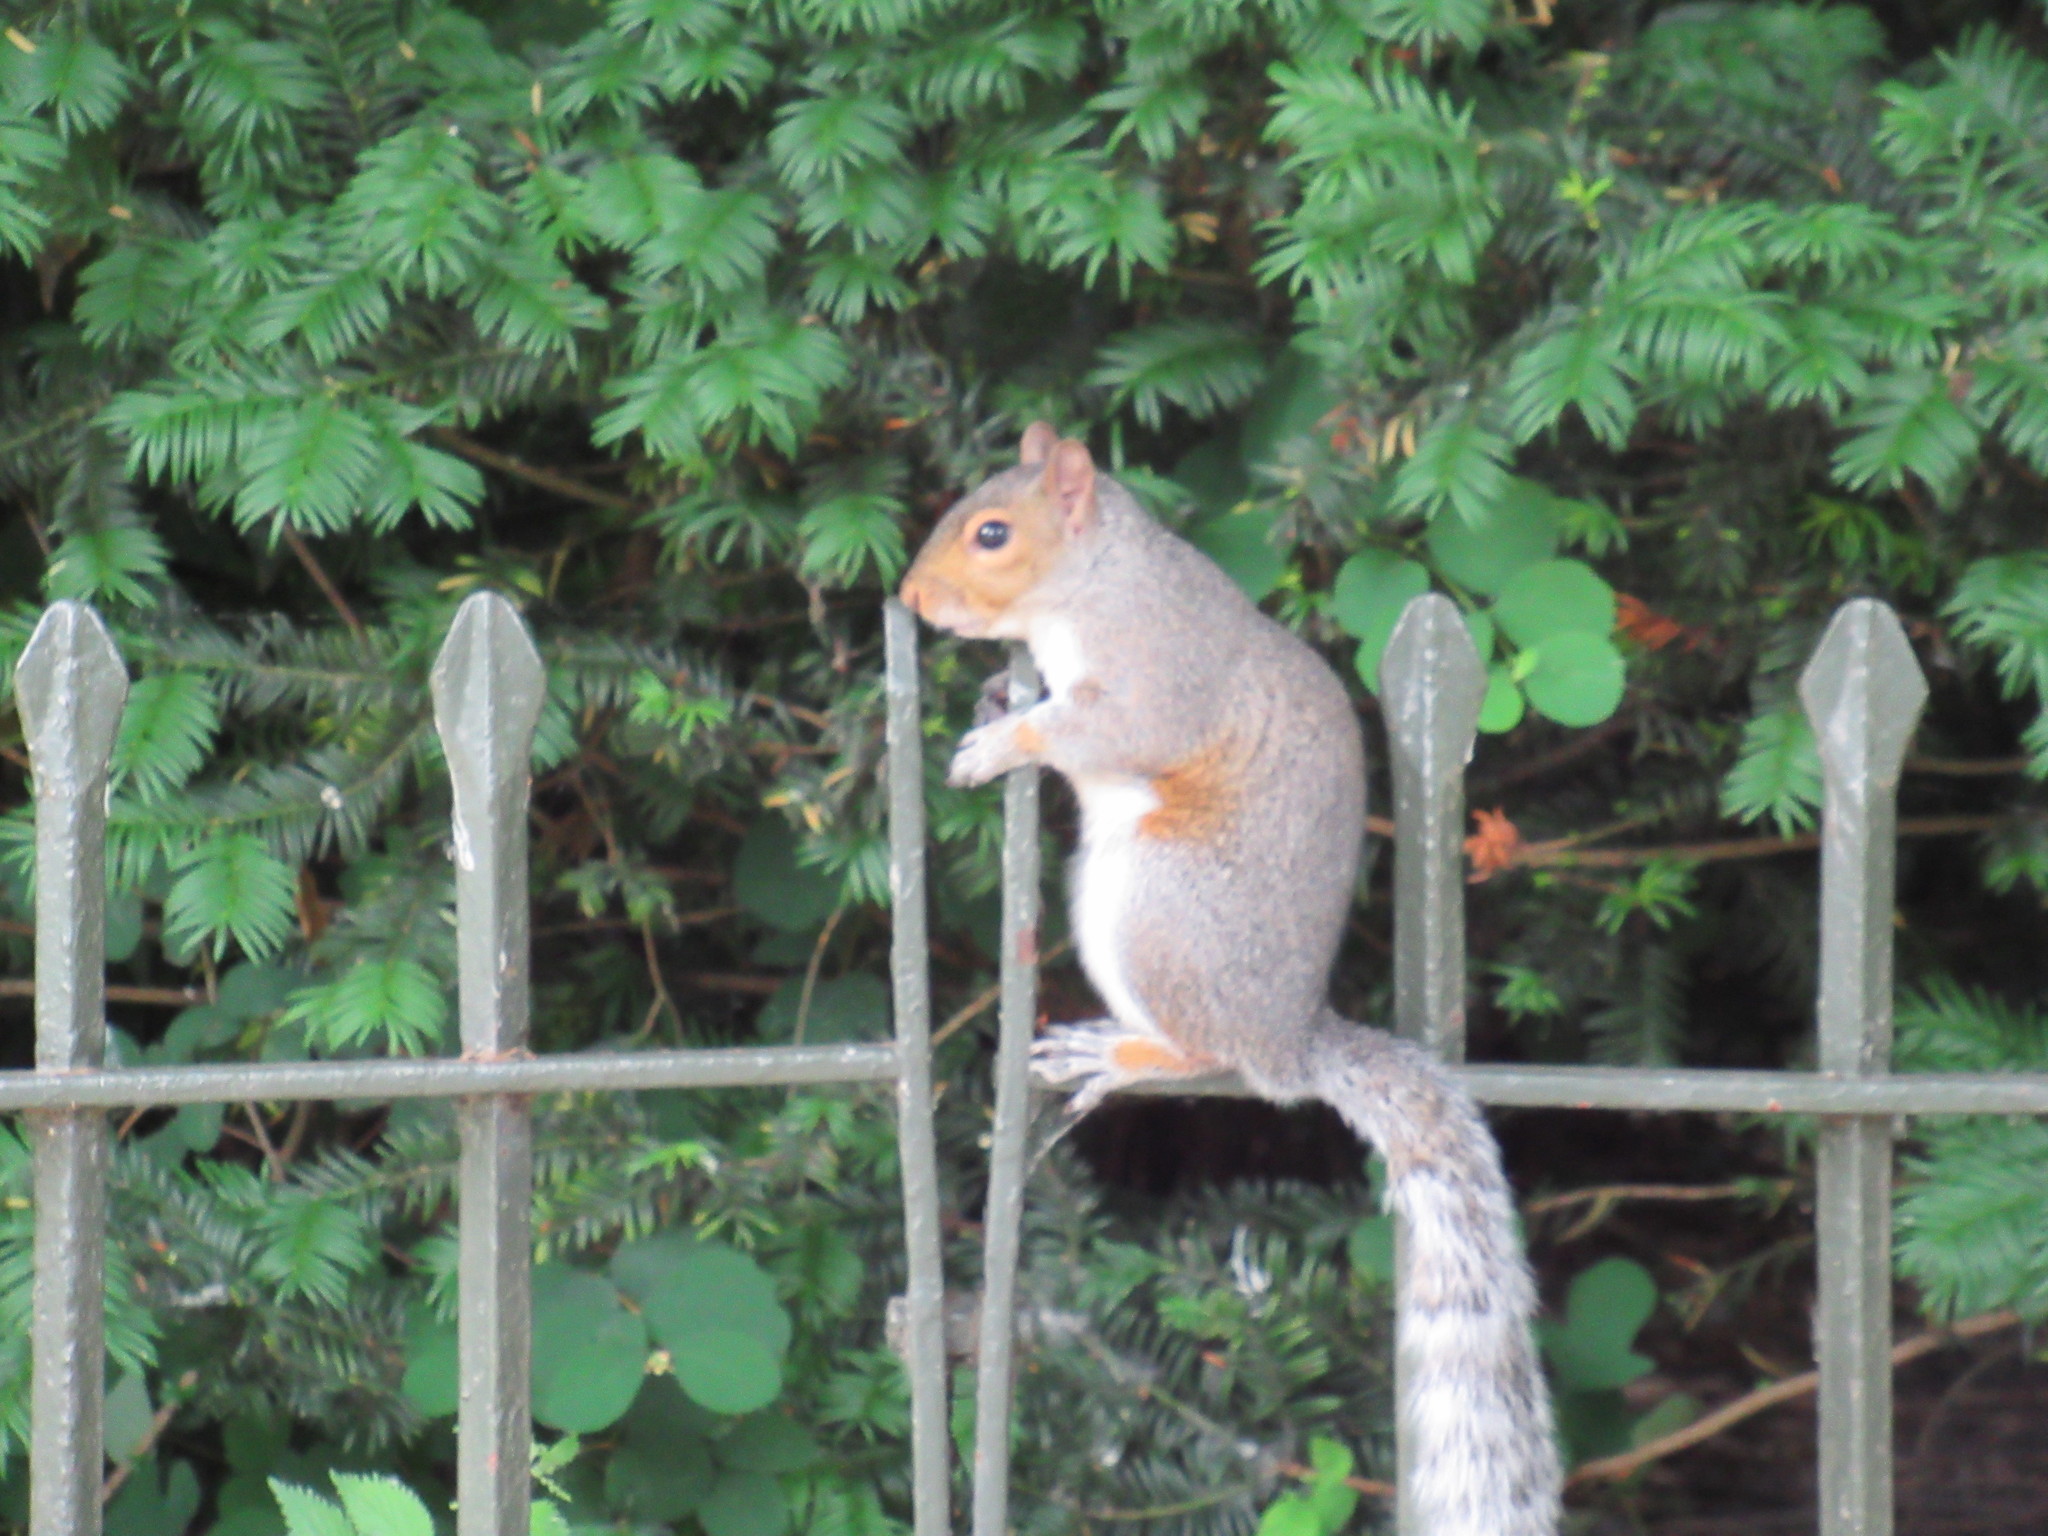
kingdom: Animalia
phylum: Chordata
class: Mammalia
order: Rodentia
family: Sciuridae
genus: Sciurus
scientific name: Sciurus carolinensis
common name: Eastern gray squirrel
